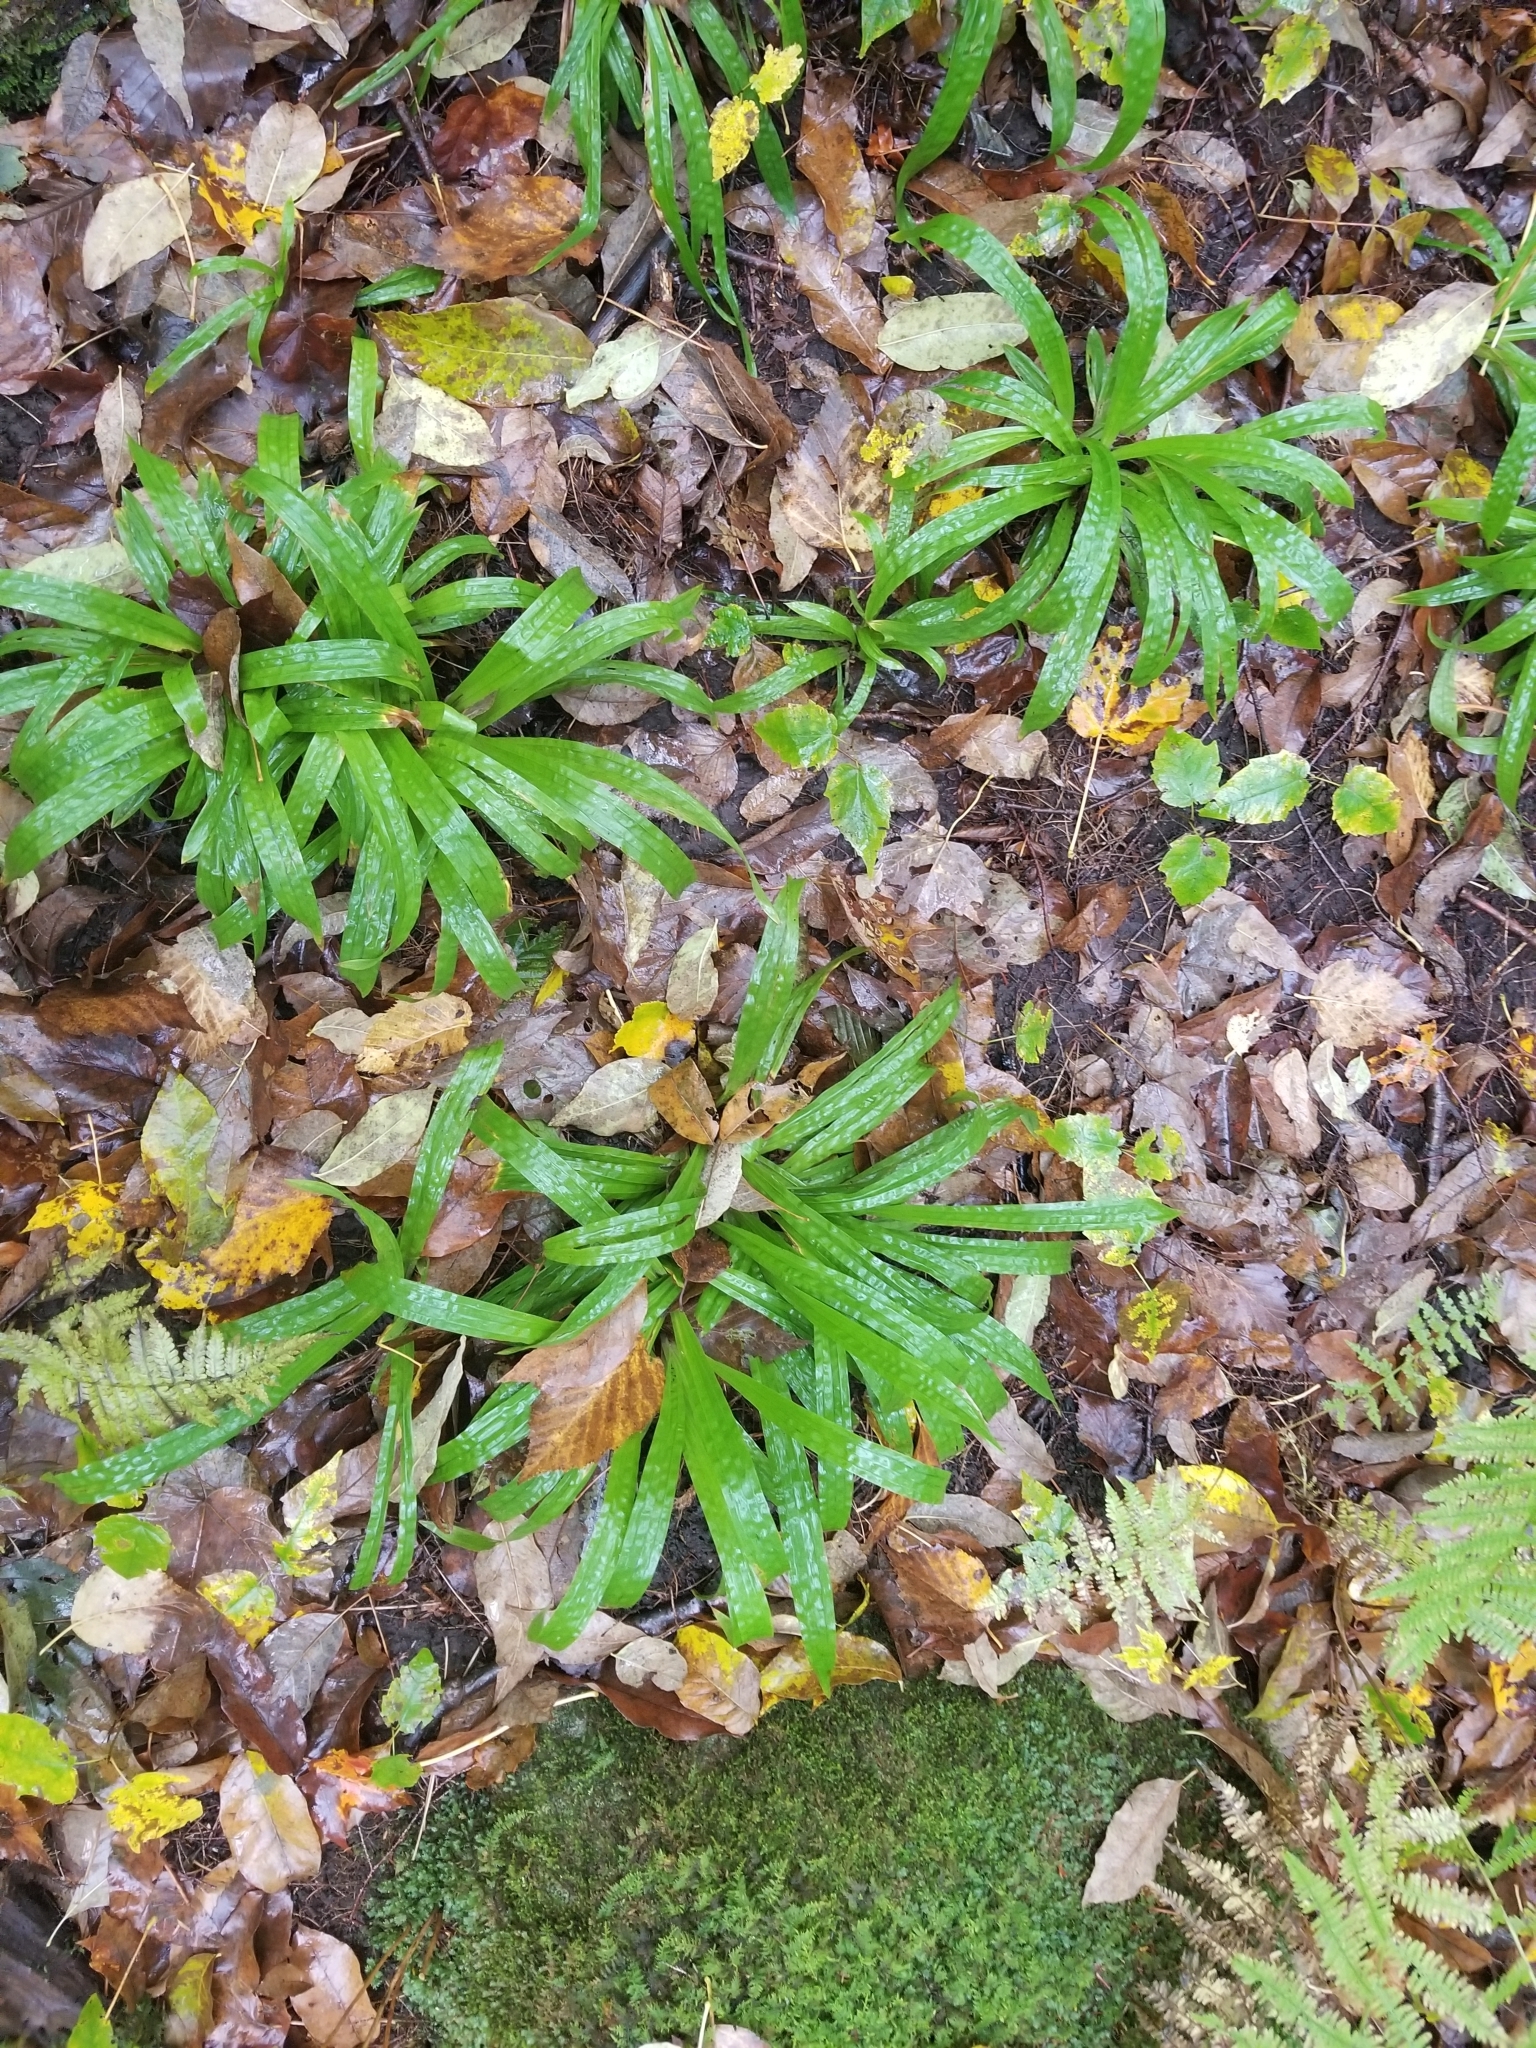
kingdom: Plantae
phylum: Tracheophyta
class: Liliopsida
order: Poales
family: Cyperaceae
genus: Carex
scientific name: Carex plantaginea
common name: Plantain-leaved sedge
